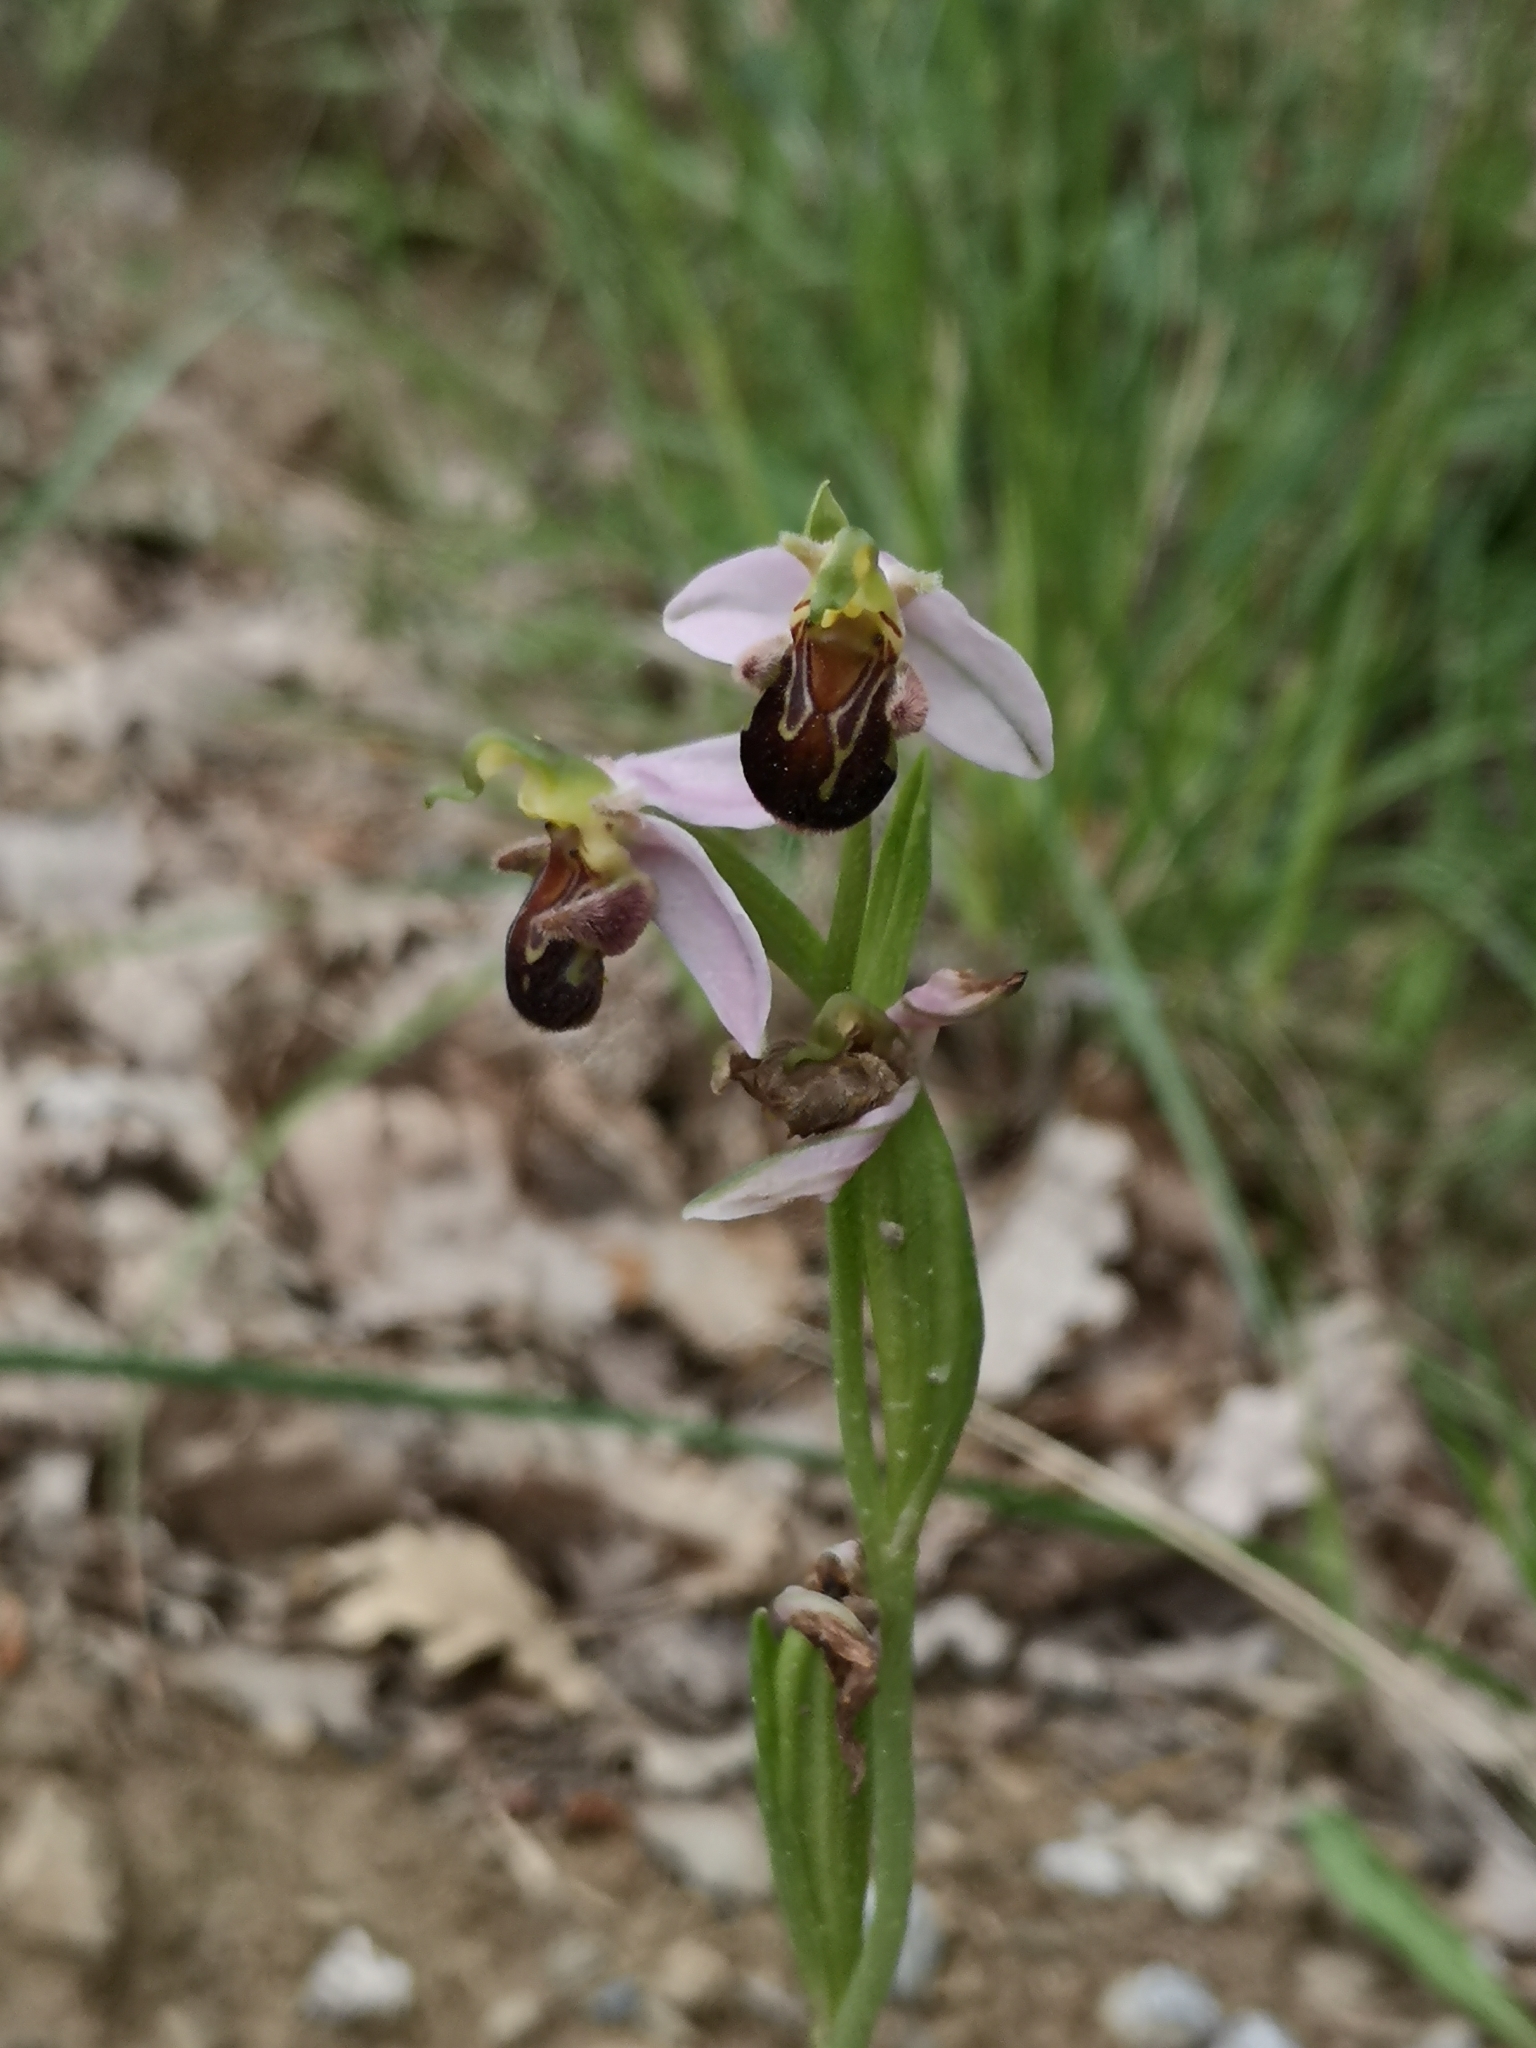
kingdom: Plantae
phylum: Tracheophyta
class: Liliopsida
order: Asparagales
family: Orchidaceae
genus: Ophrys
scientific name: Ophrys apifera
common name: Bee orchid
